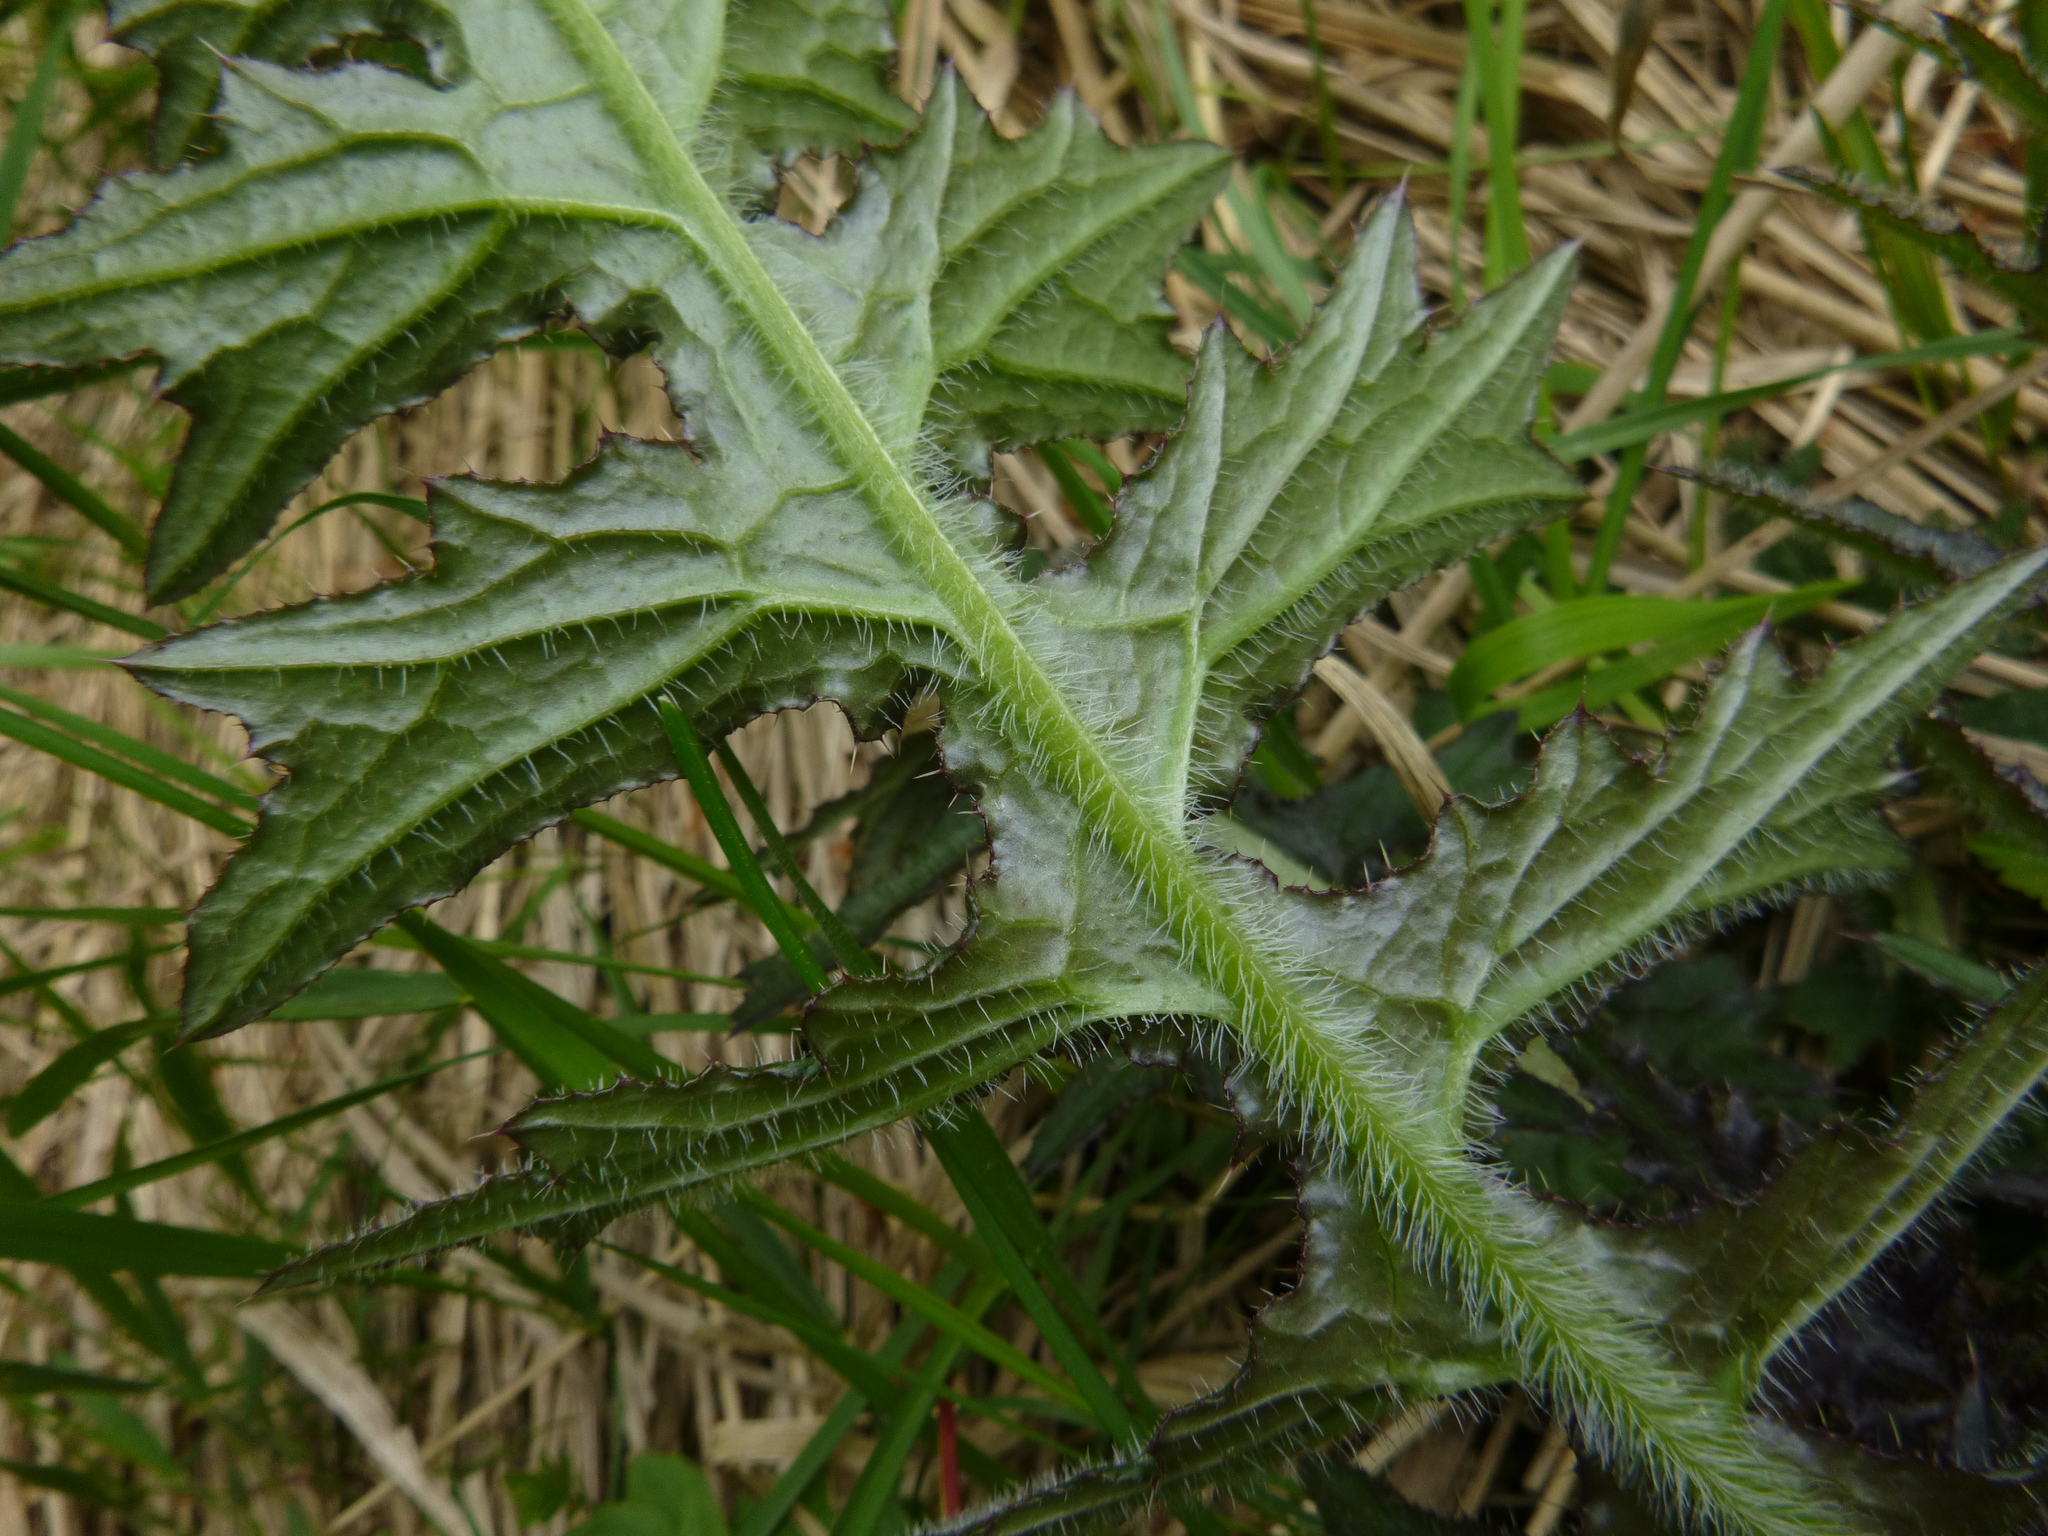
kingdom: Plantae
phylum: Tracheophyta
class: Magnoliopsida
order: Asterales
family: Asteraceae
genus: Cirsium
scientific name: Cirsium palustre
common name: Marsh thistle
